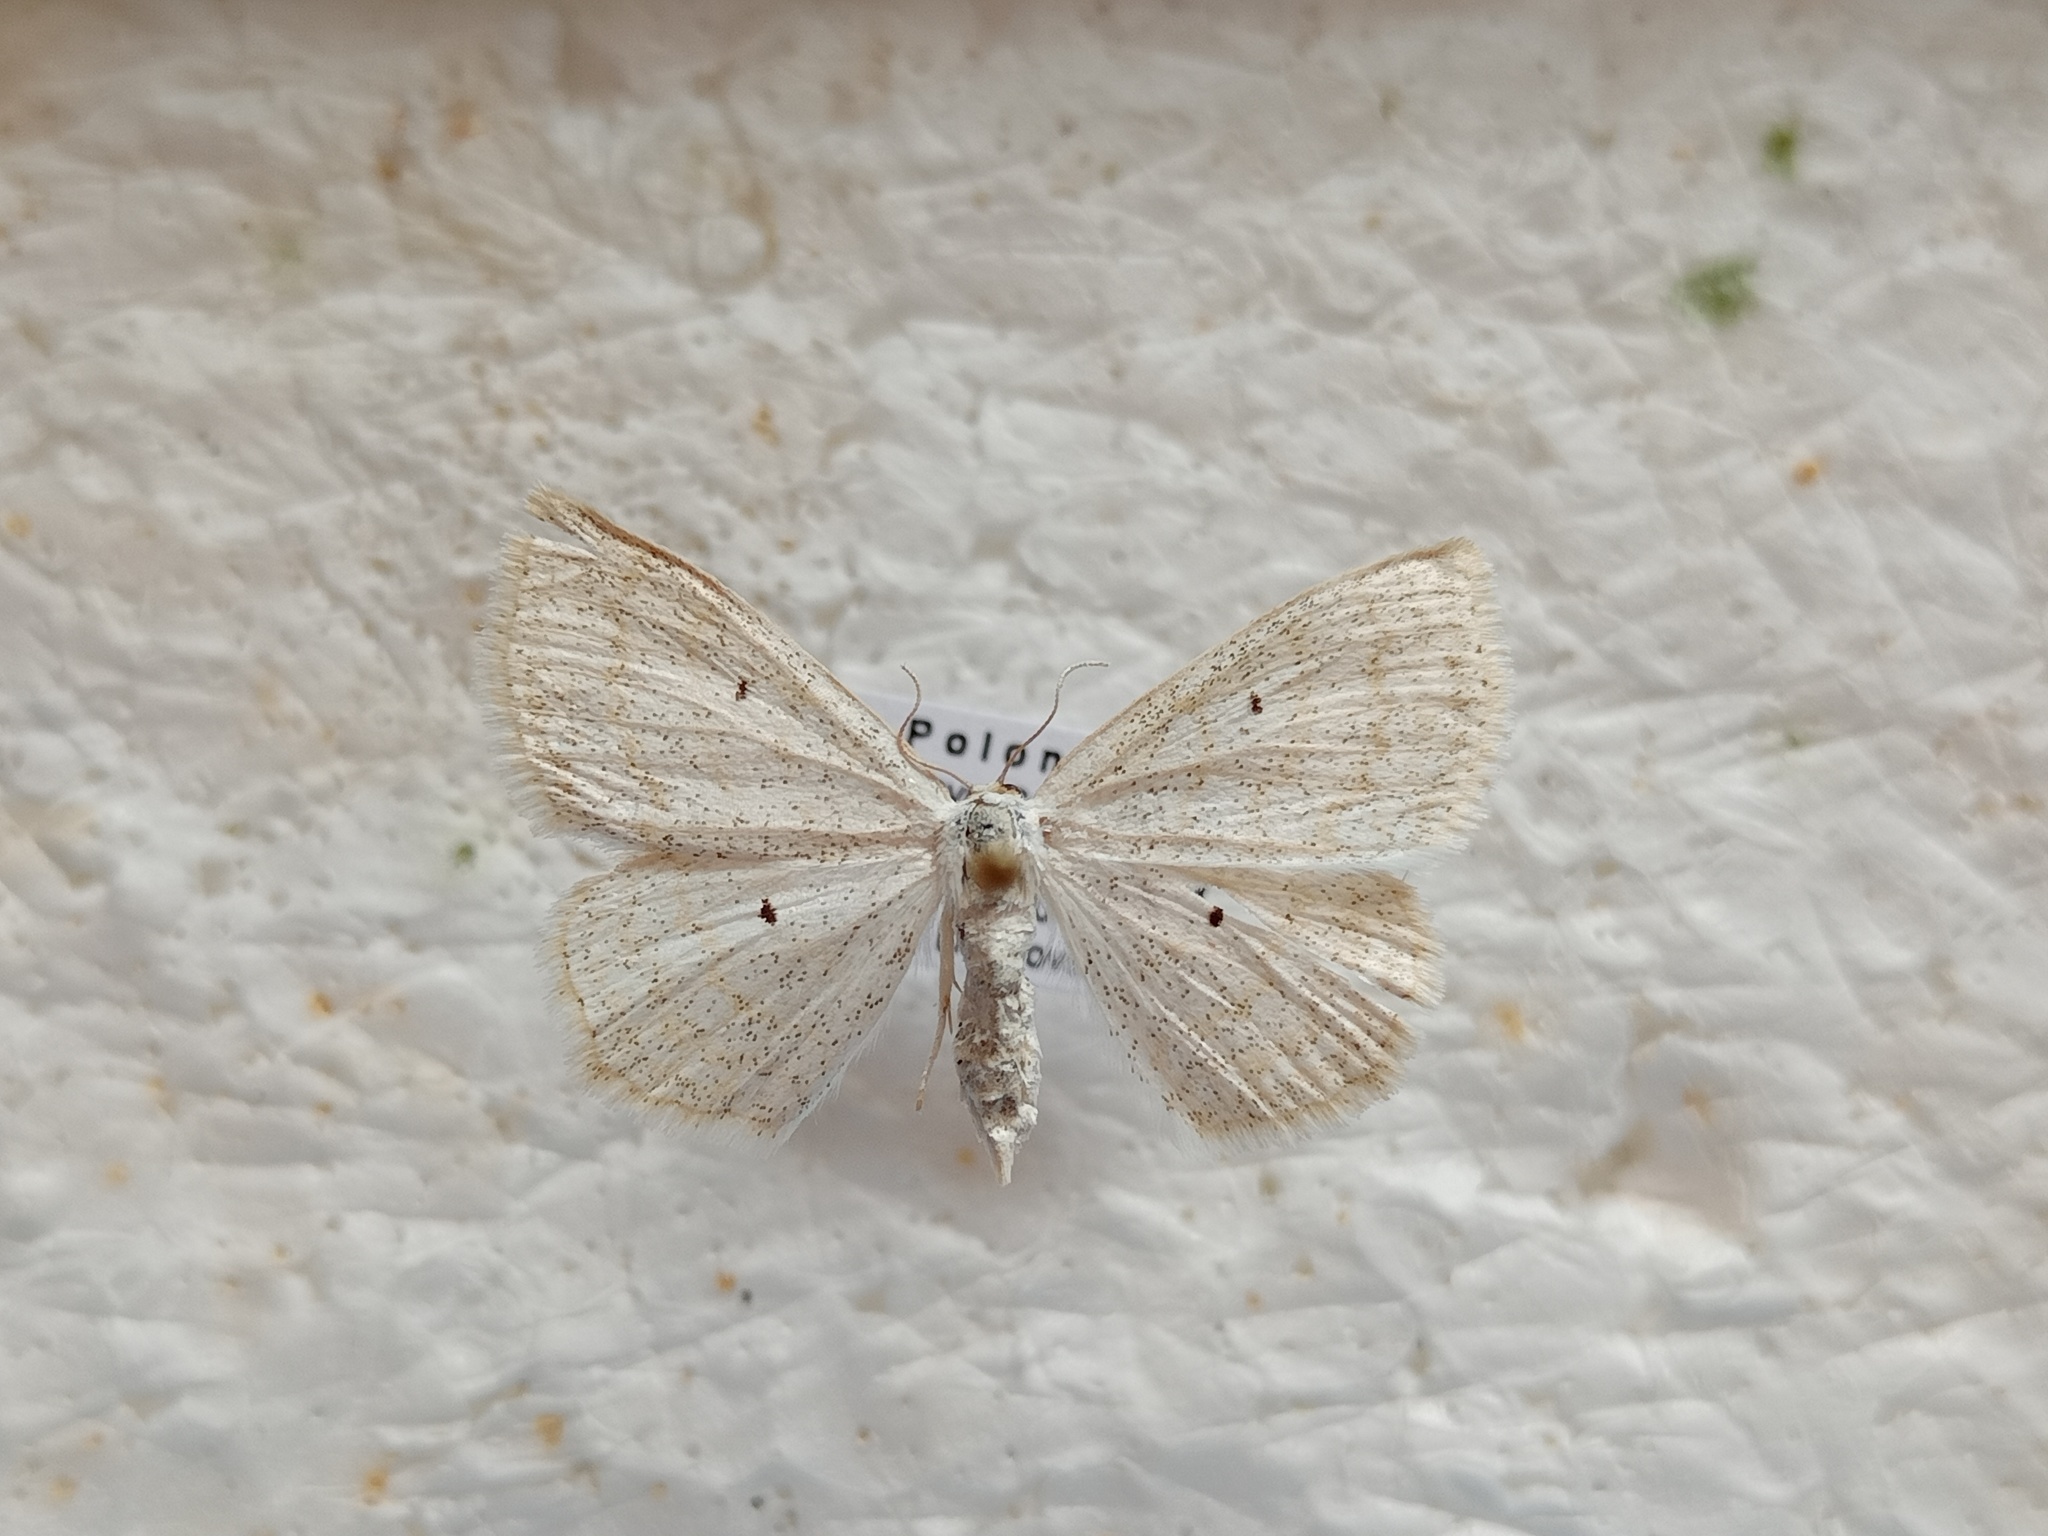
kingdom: Animalia
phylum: Arthropoda
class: Insecta
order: Lepidoptera
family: Geometridae
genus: Scopula
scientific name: Scopula immutata
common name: Lesser cream wave
